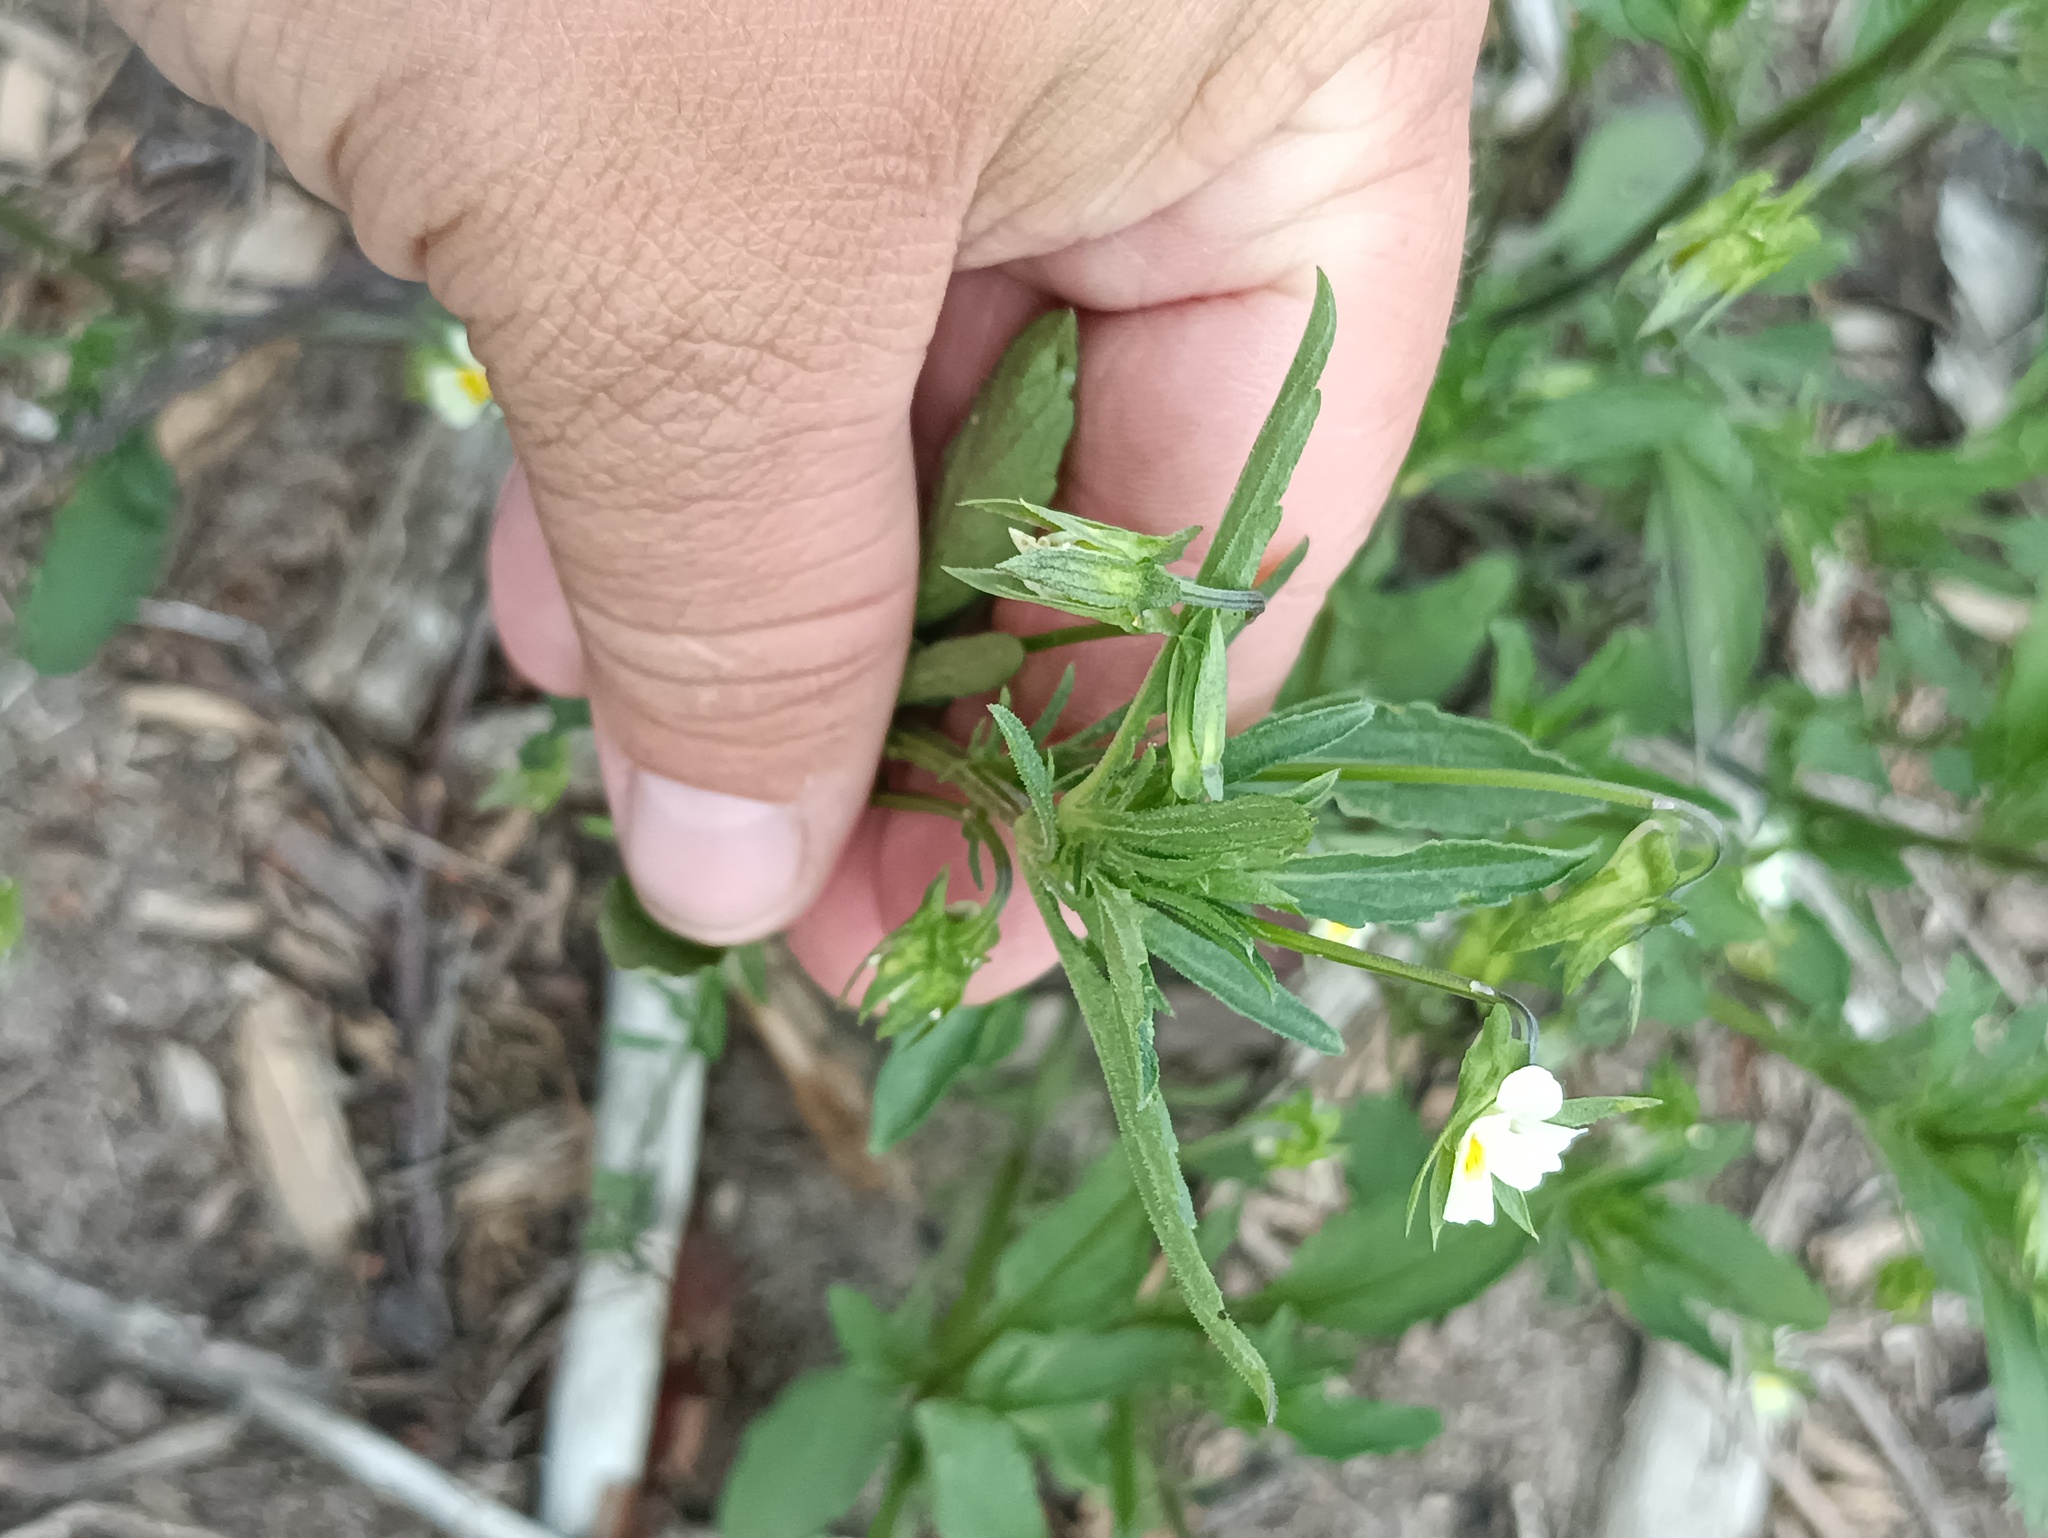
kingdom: Plantae
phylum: Tracheophyta
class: Magnoliopsida
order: Malpighiales
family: Violaceae
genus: Viola
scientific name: Viola arvensis
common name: Field pansy
